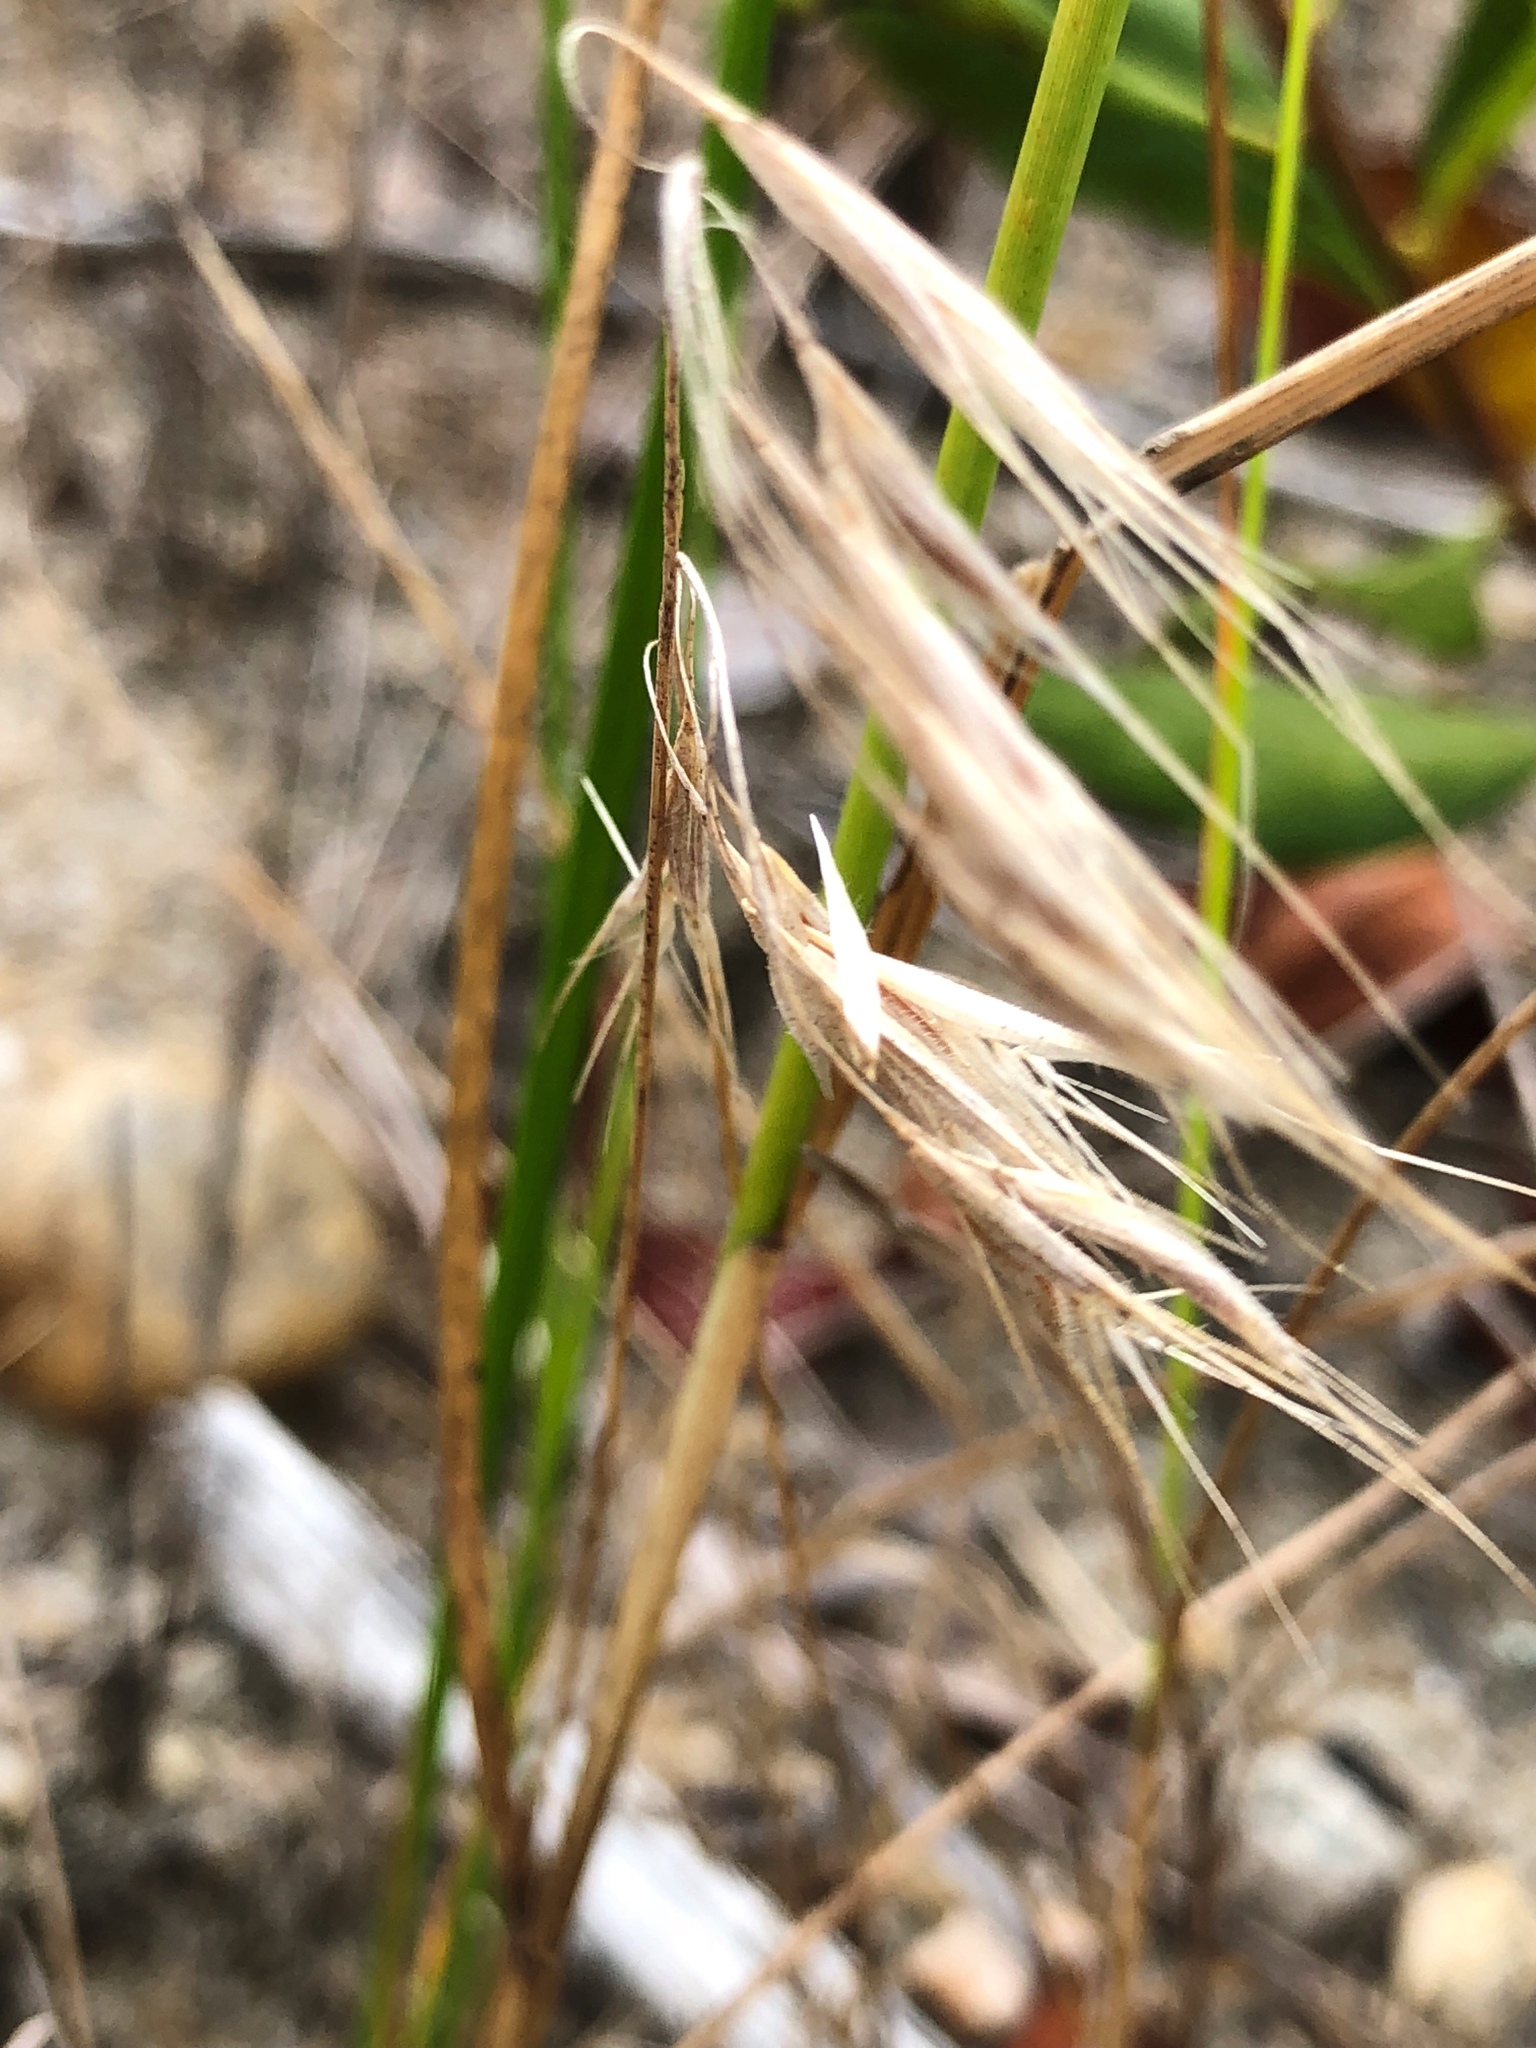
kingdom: Plantae
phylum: Tracheophyta
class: Liliopsida
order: Poales
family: Poaceae
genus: Bromus
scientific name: Bromus tectorum
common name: Cheatgrass
